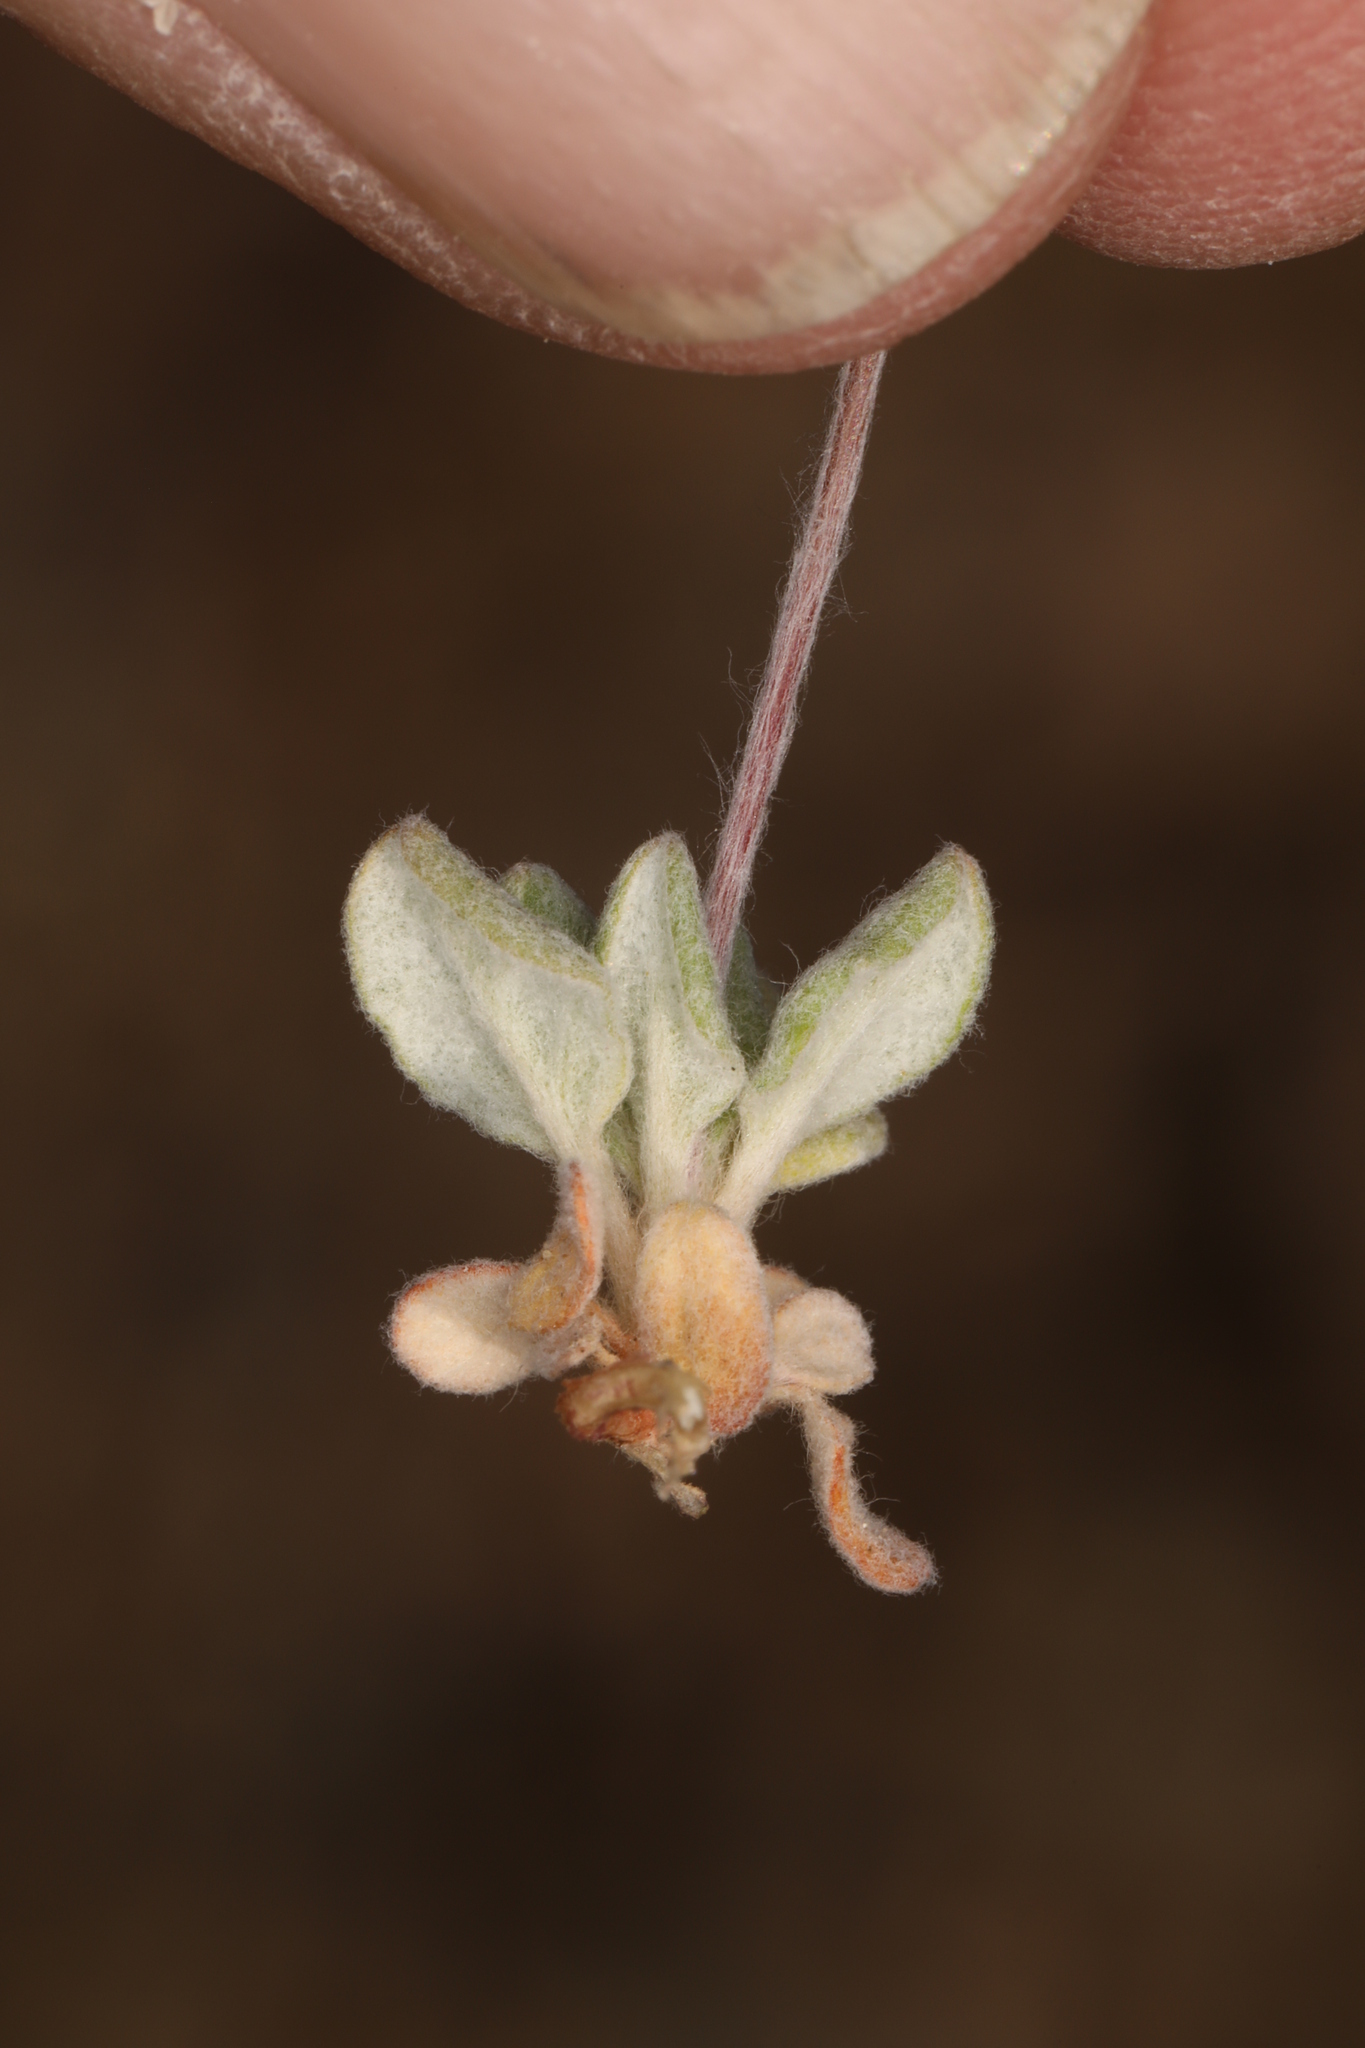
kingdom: Plantae
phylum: Tracheophyta
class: Magnoliopsida
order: Caryophyllales
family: Polygonaceae
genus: Eriogonum
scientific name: Eriogonum maculatum
